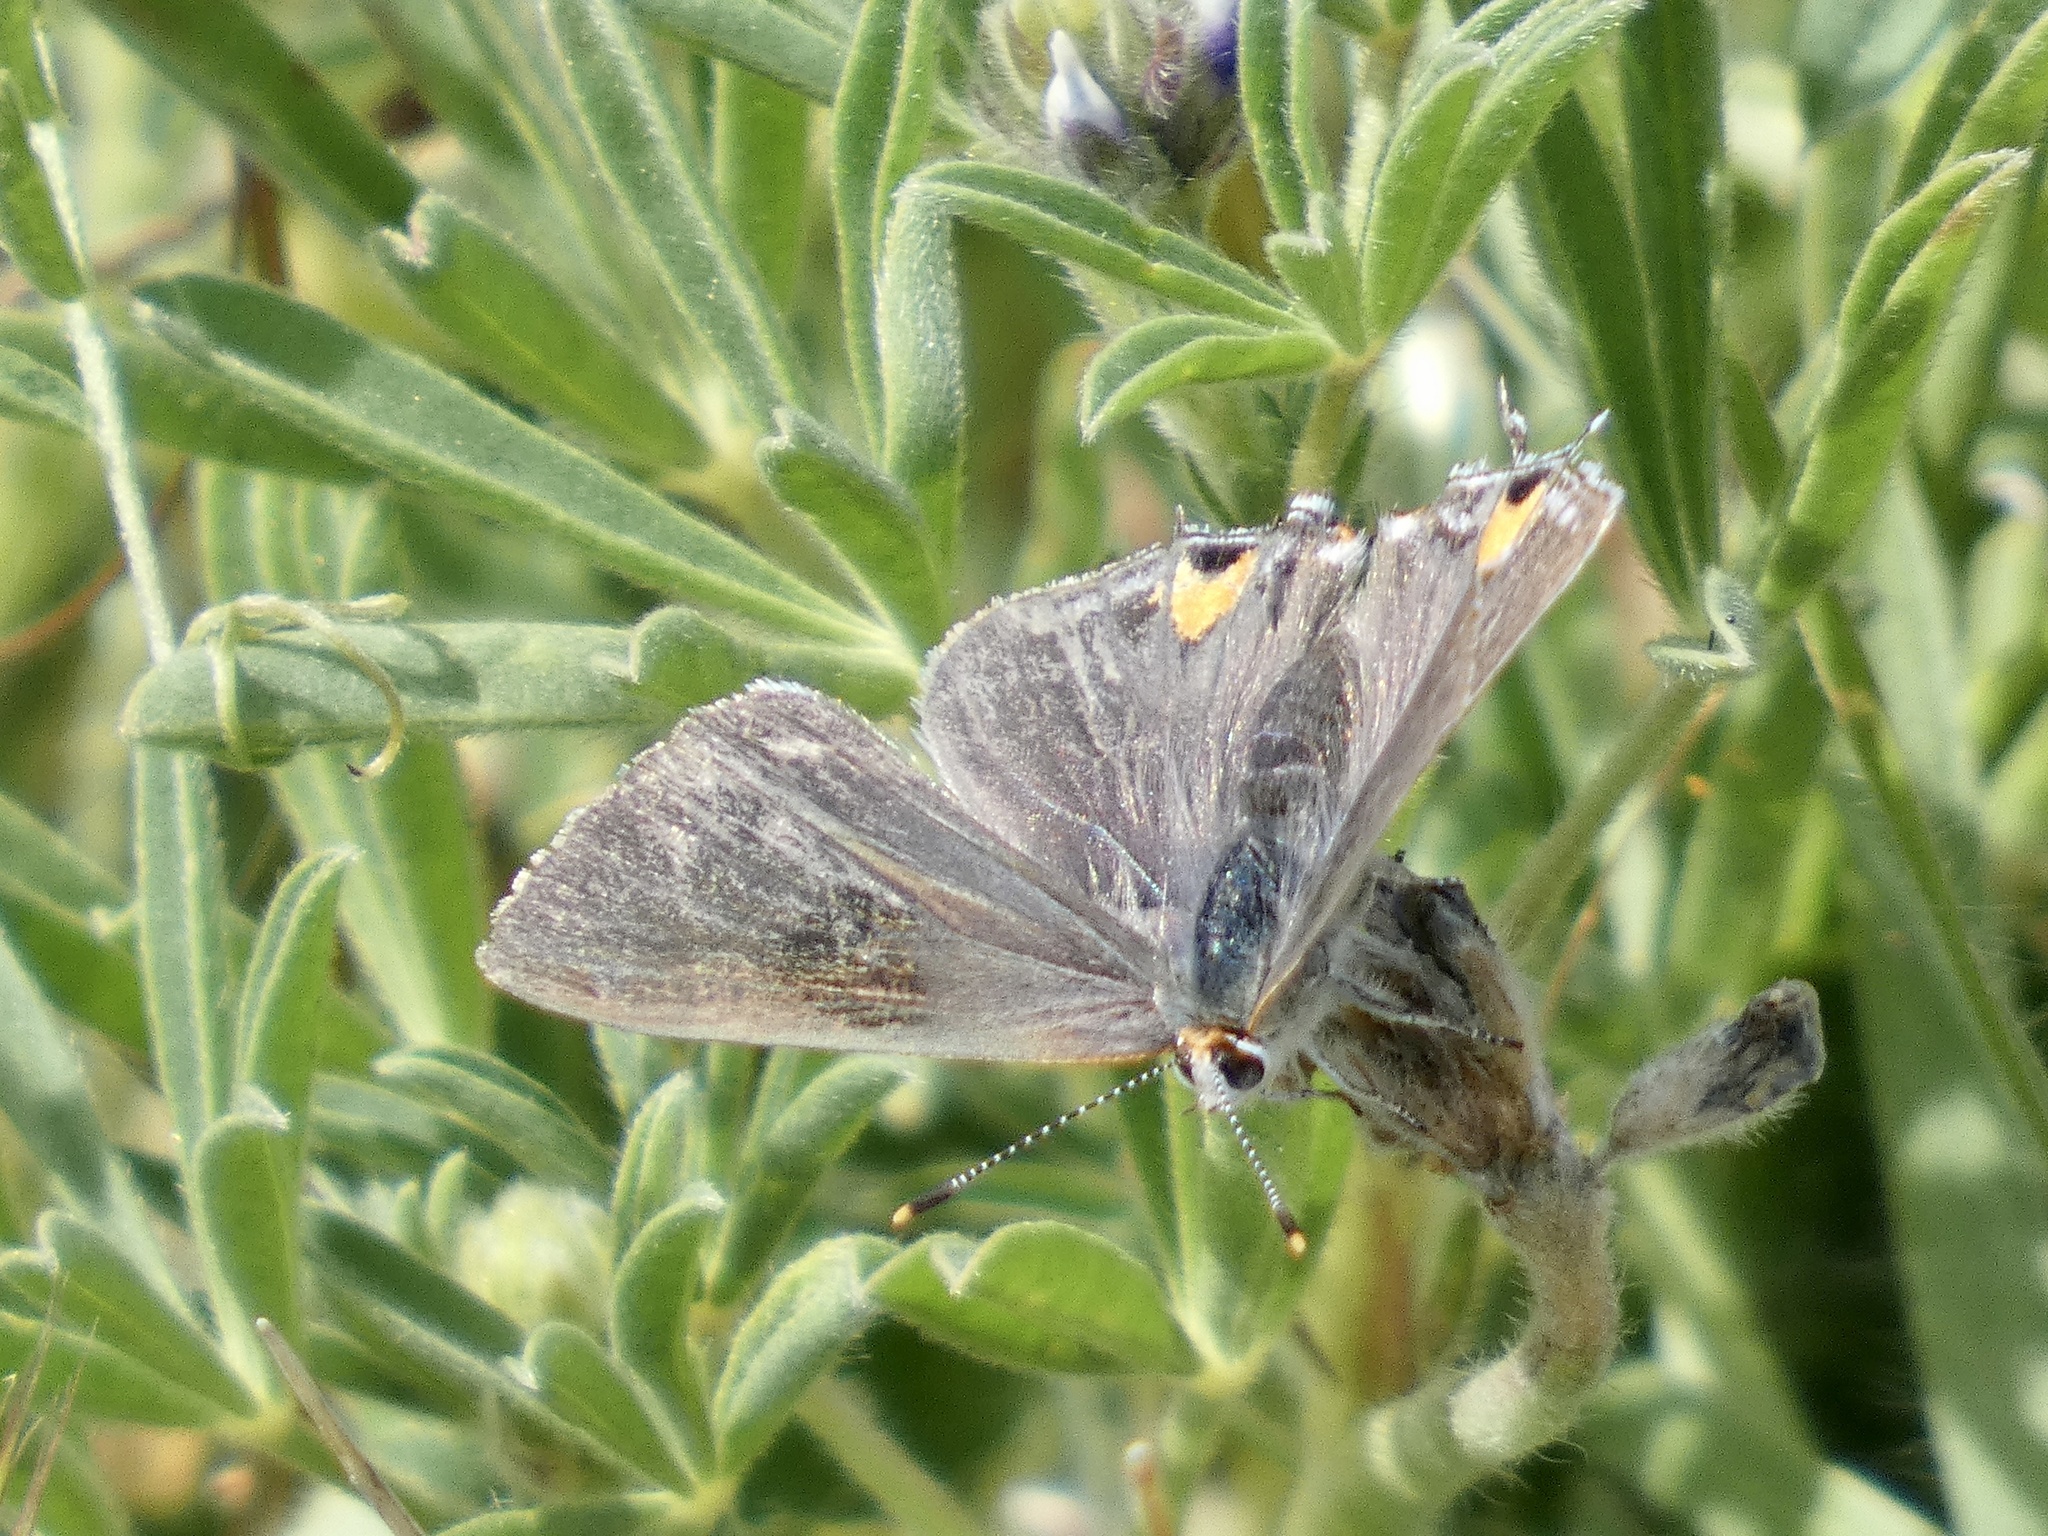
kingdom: Animalia
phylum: Arthropoda
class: Insecta
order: Lepidoptera
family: Lycaenidae
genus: Strymon
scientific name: Strymon melinus
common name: Gray hairstreak
